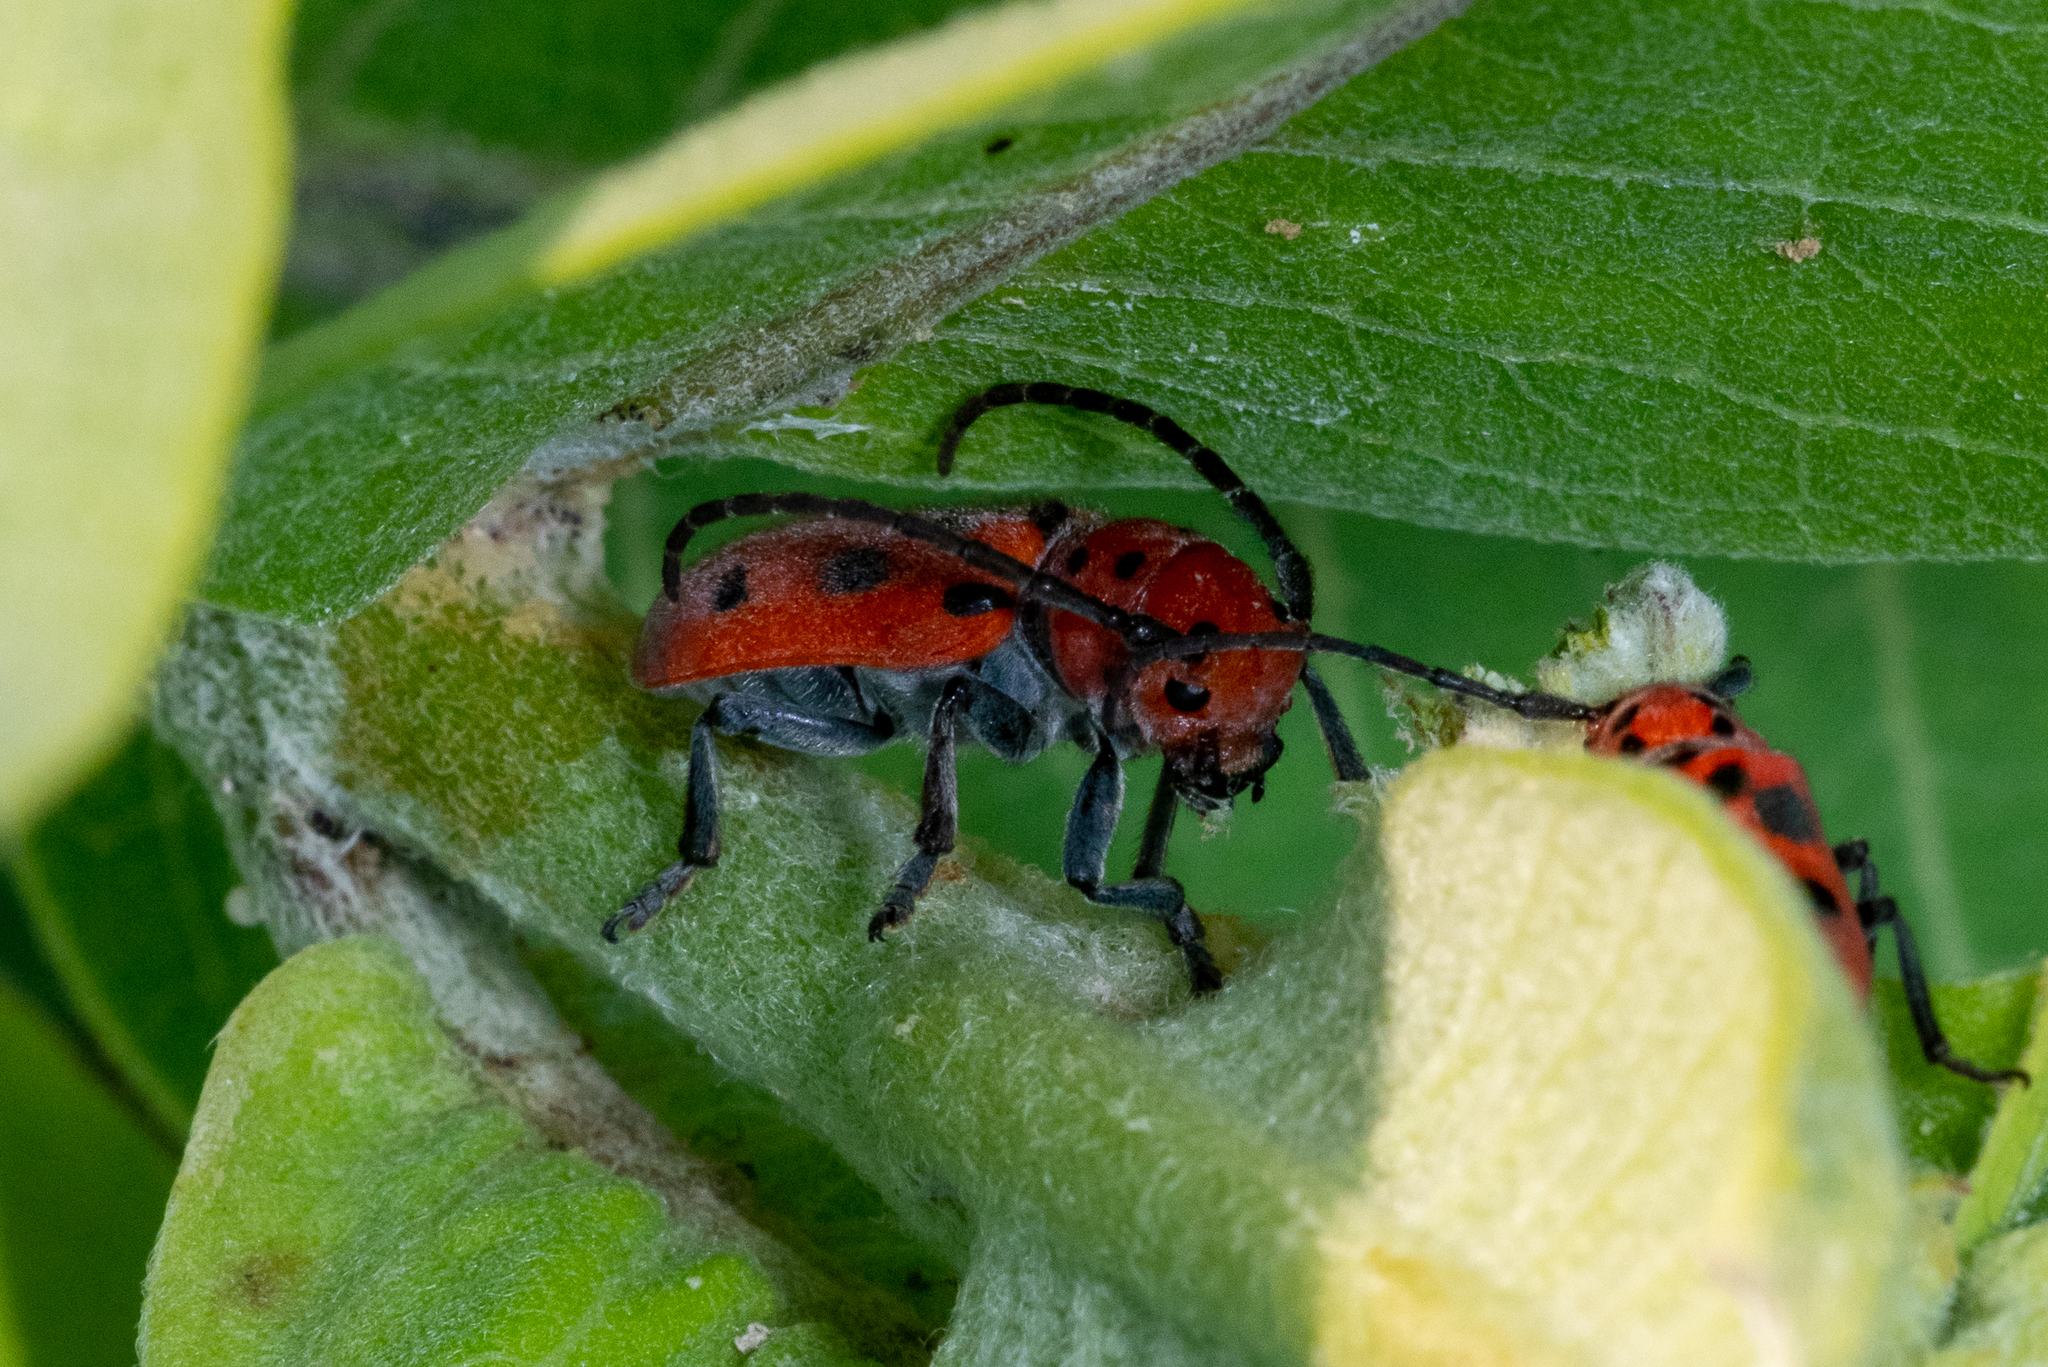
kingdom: Animalia
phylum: Arthropoda
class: Insecta
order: Coleoptera
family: Cerambycidae
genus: Tetraopes
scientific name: Tetraopes tetrophthalmus
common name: Red milkweed beetle
